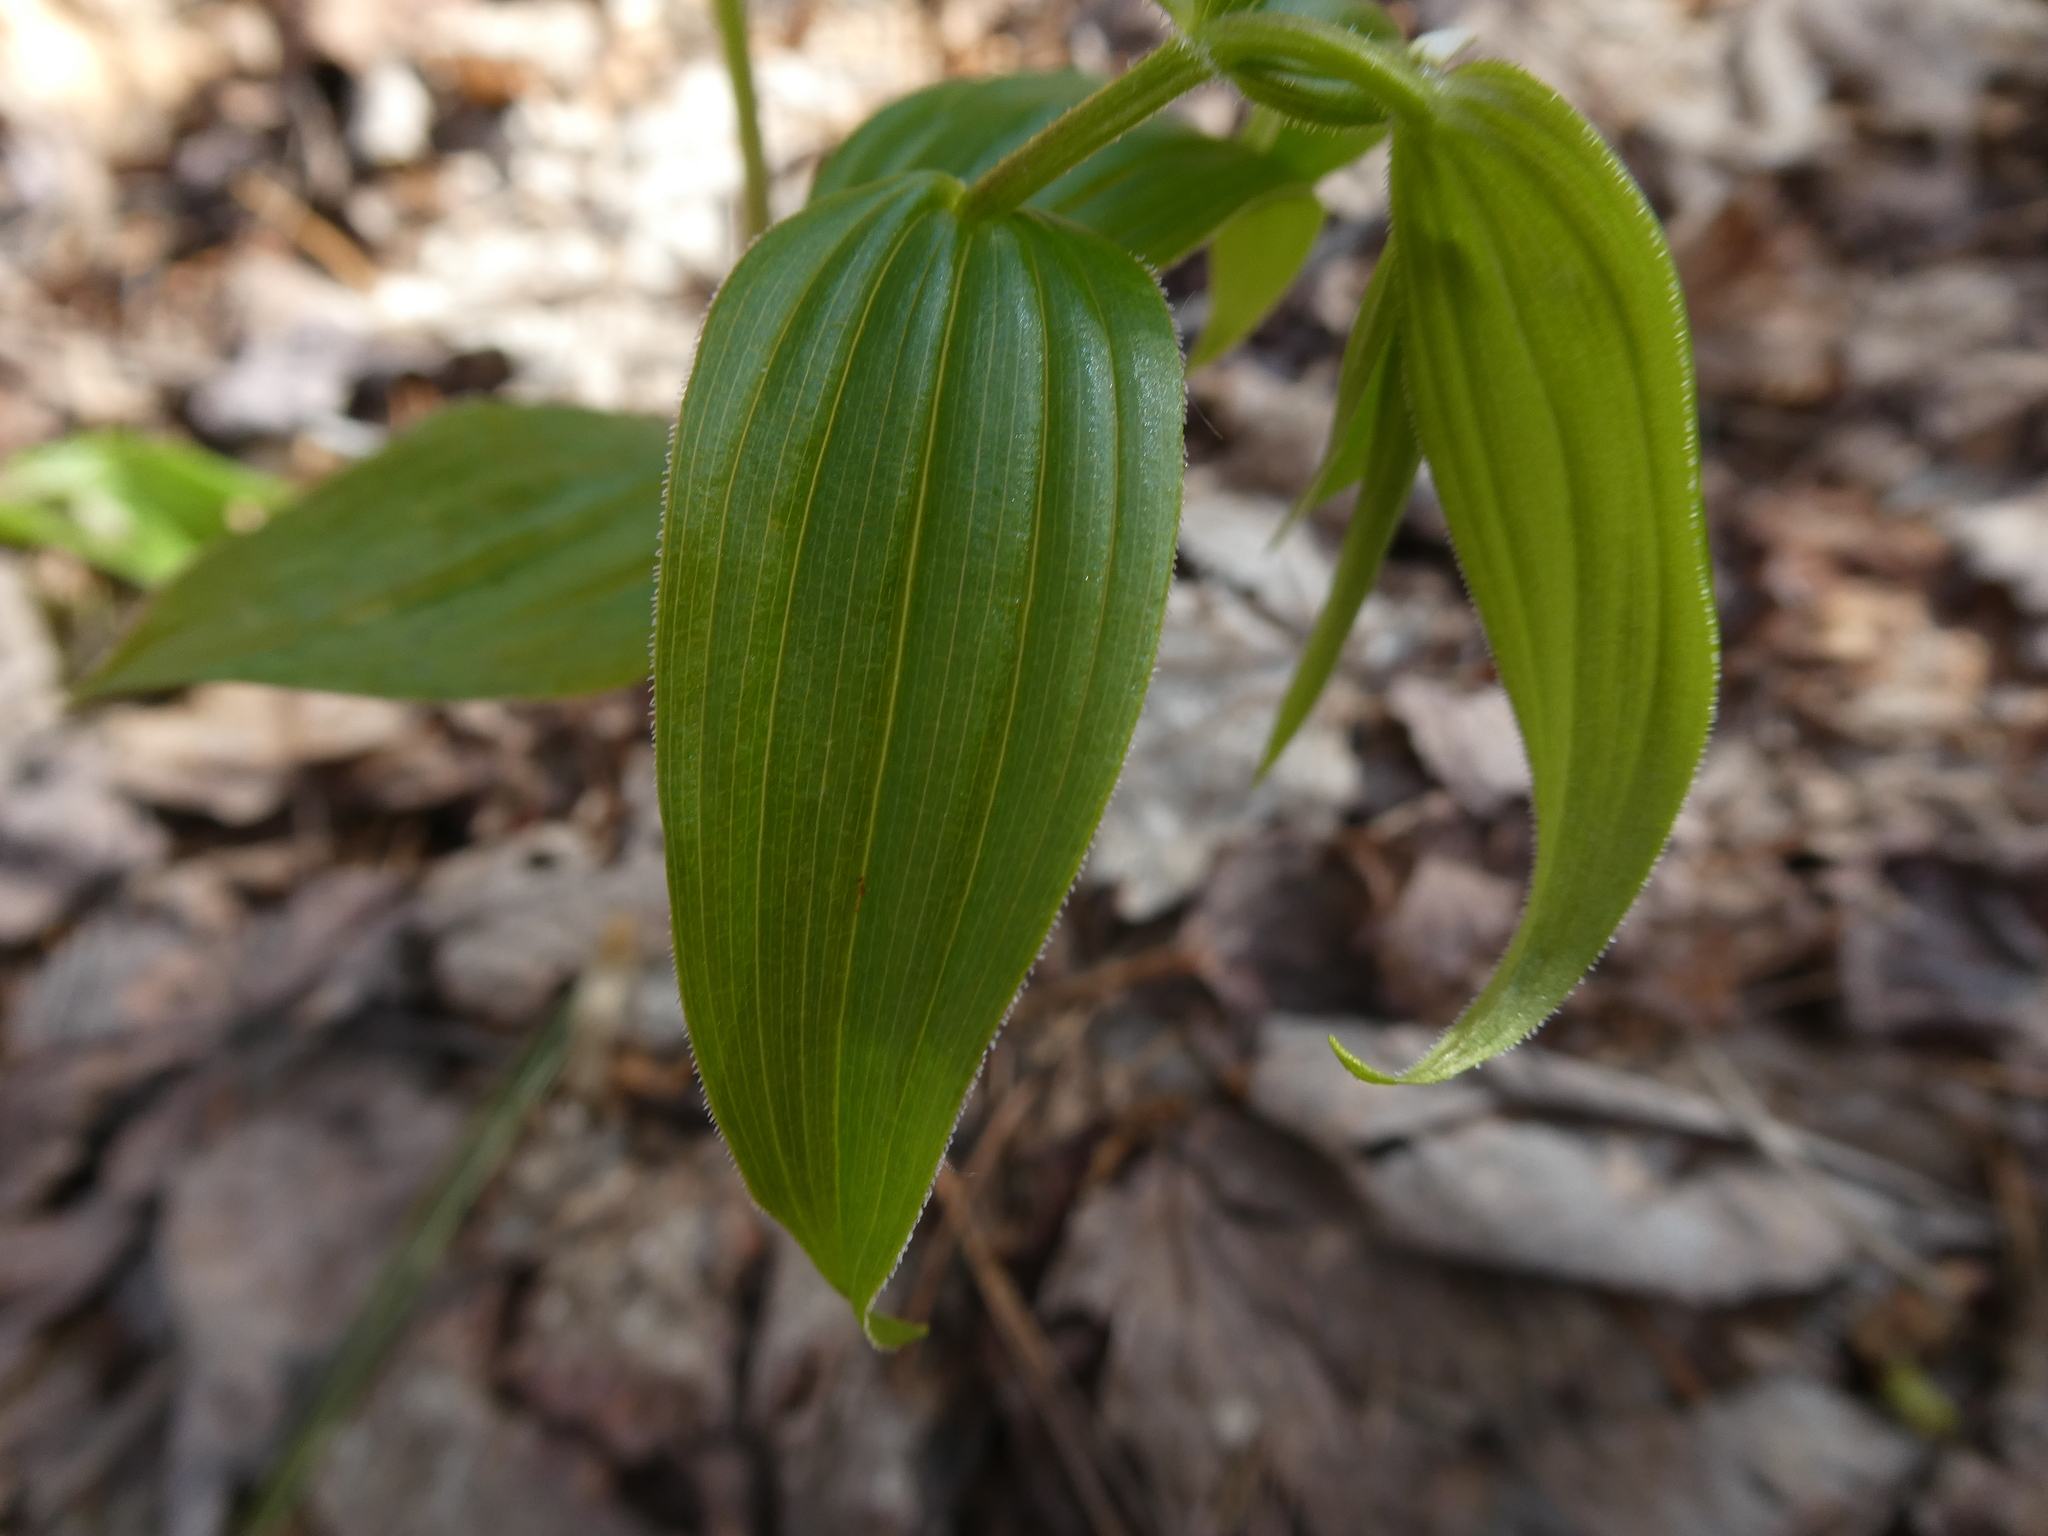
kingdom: Plantae
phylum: Tracheophyta
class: Liliopsida
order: Liliales
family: Liliaceae
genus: Streptopus
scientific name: Streptopus lanceolatus
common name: Rose mandarin
